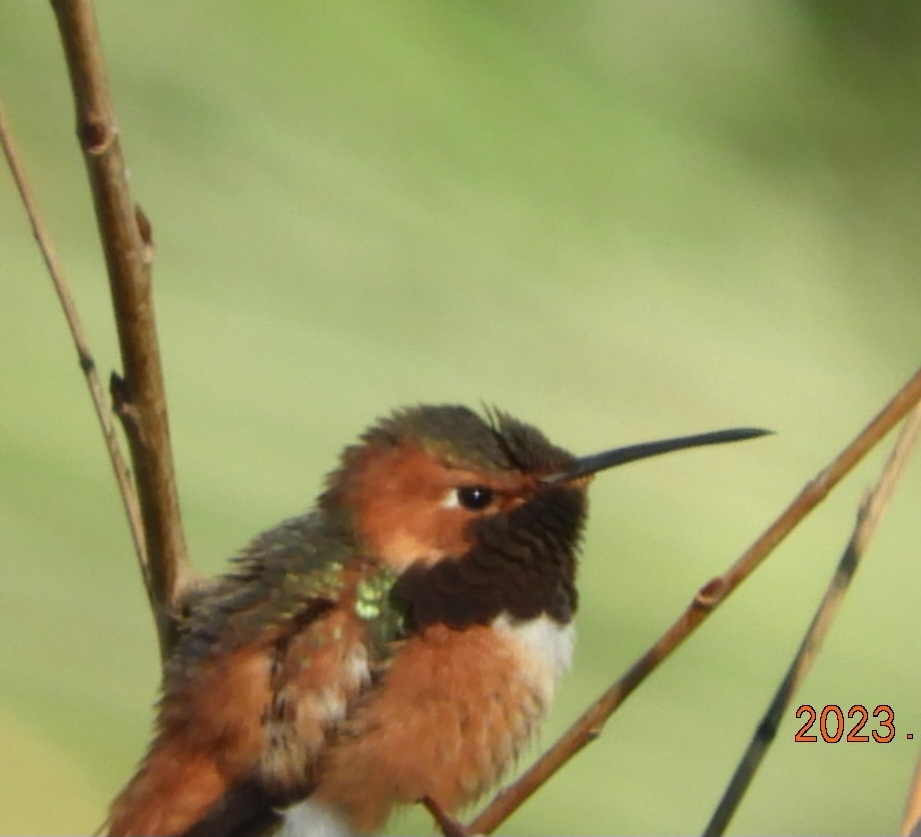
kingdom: Animalia
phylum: Chordata
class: Aves
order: Apodiformes
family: Trochilidae
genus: Selasphorus
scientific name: Selasphorus sasin
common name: Allen's hummingbird
